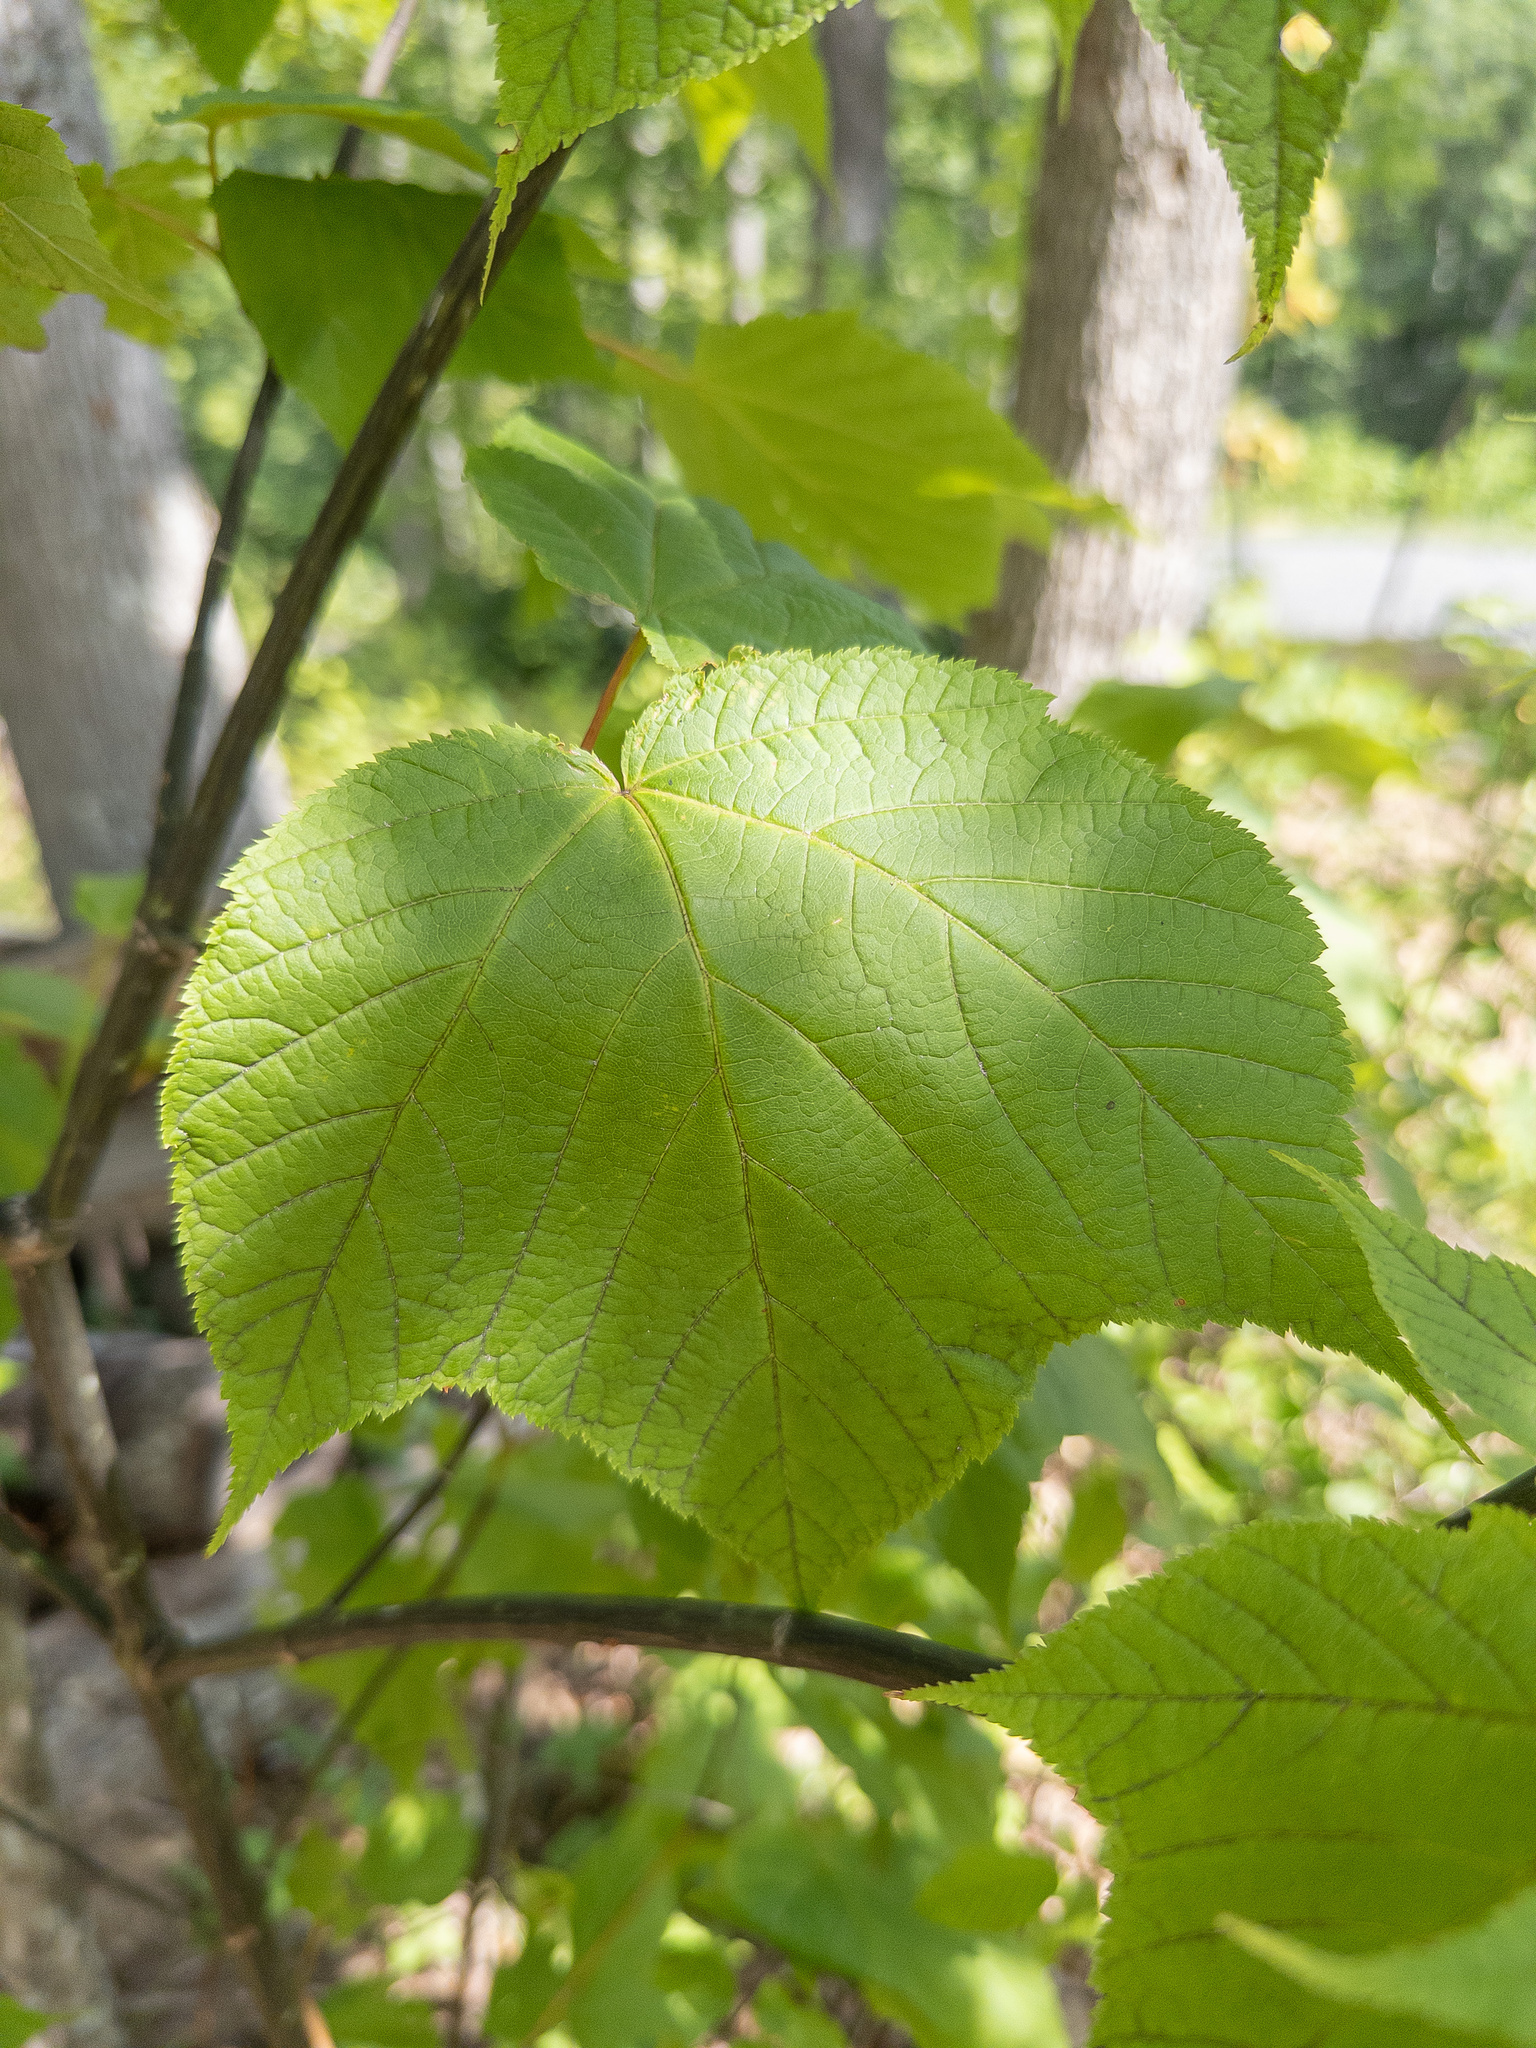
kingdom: Plantae
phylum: Tracheophyta
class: Magnoliopsida
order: Sapindales
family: Sapindaceae
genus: Acer
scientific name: Acer pensylvanicum
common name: Moosewood
